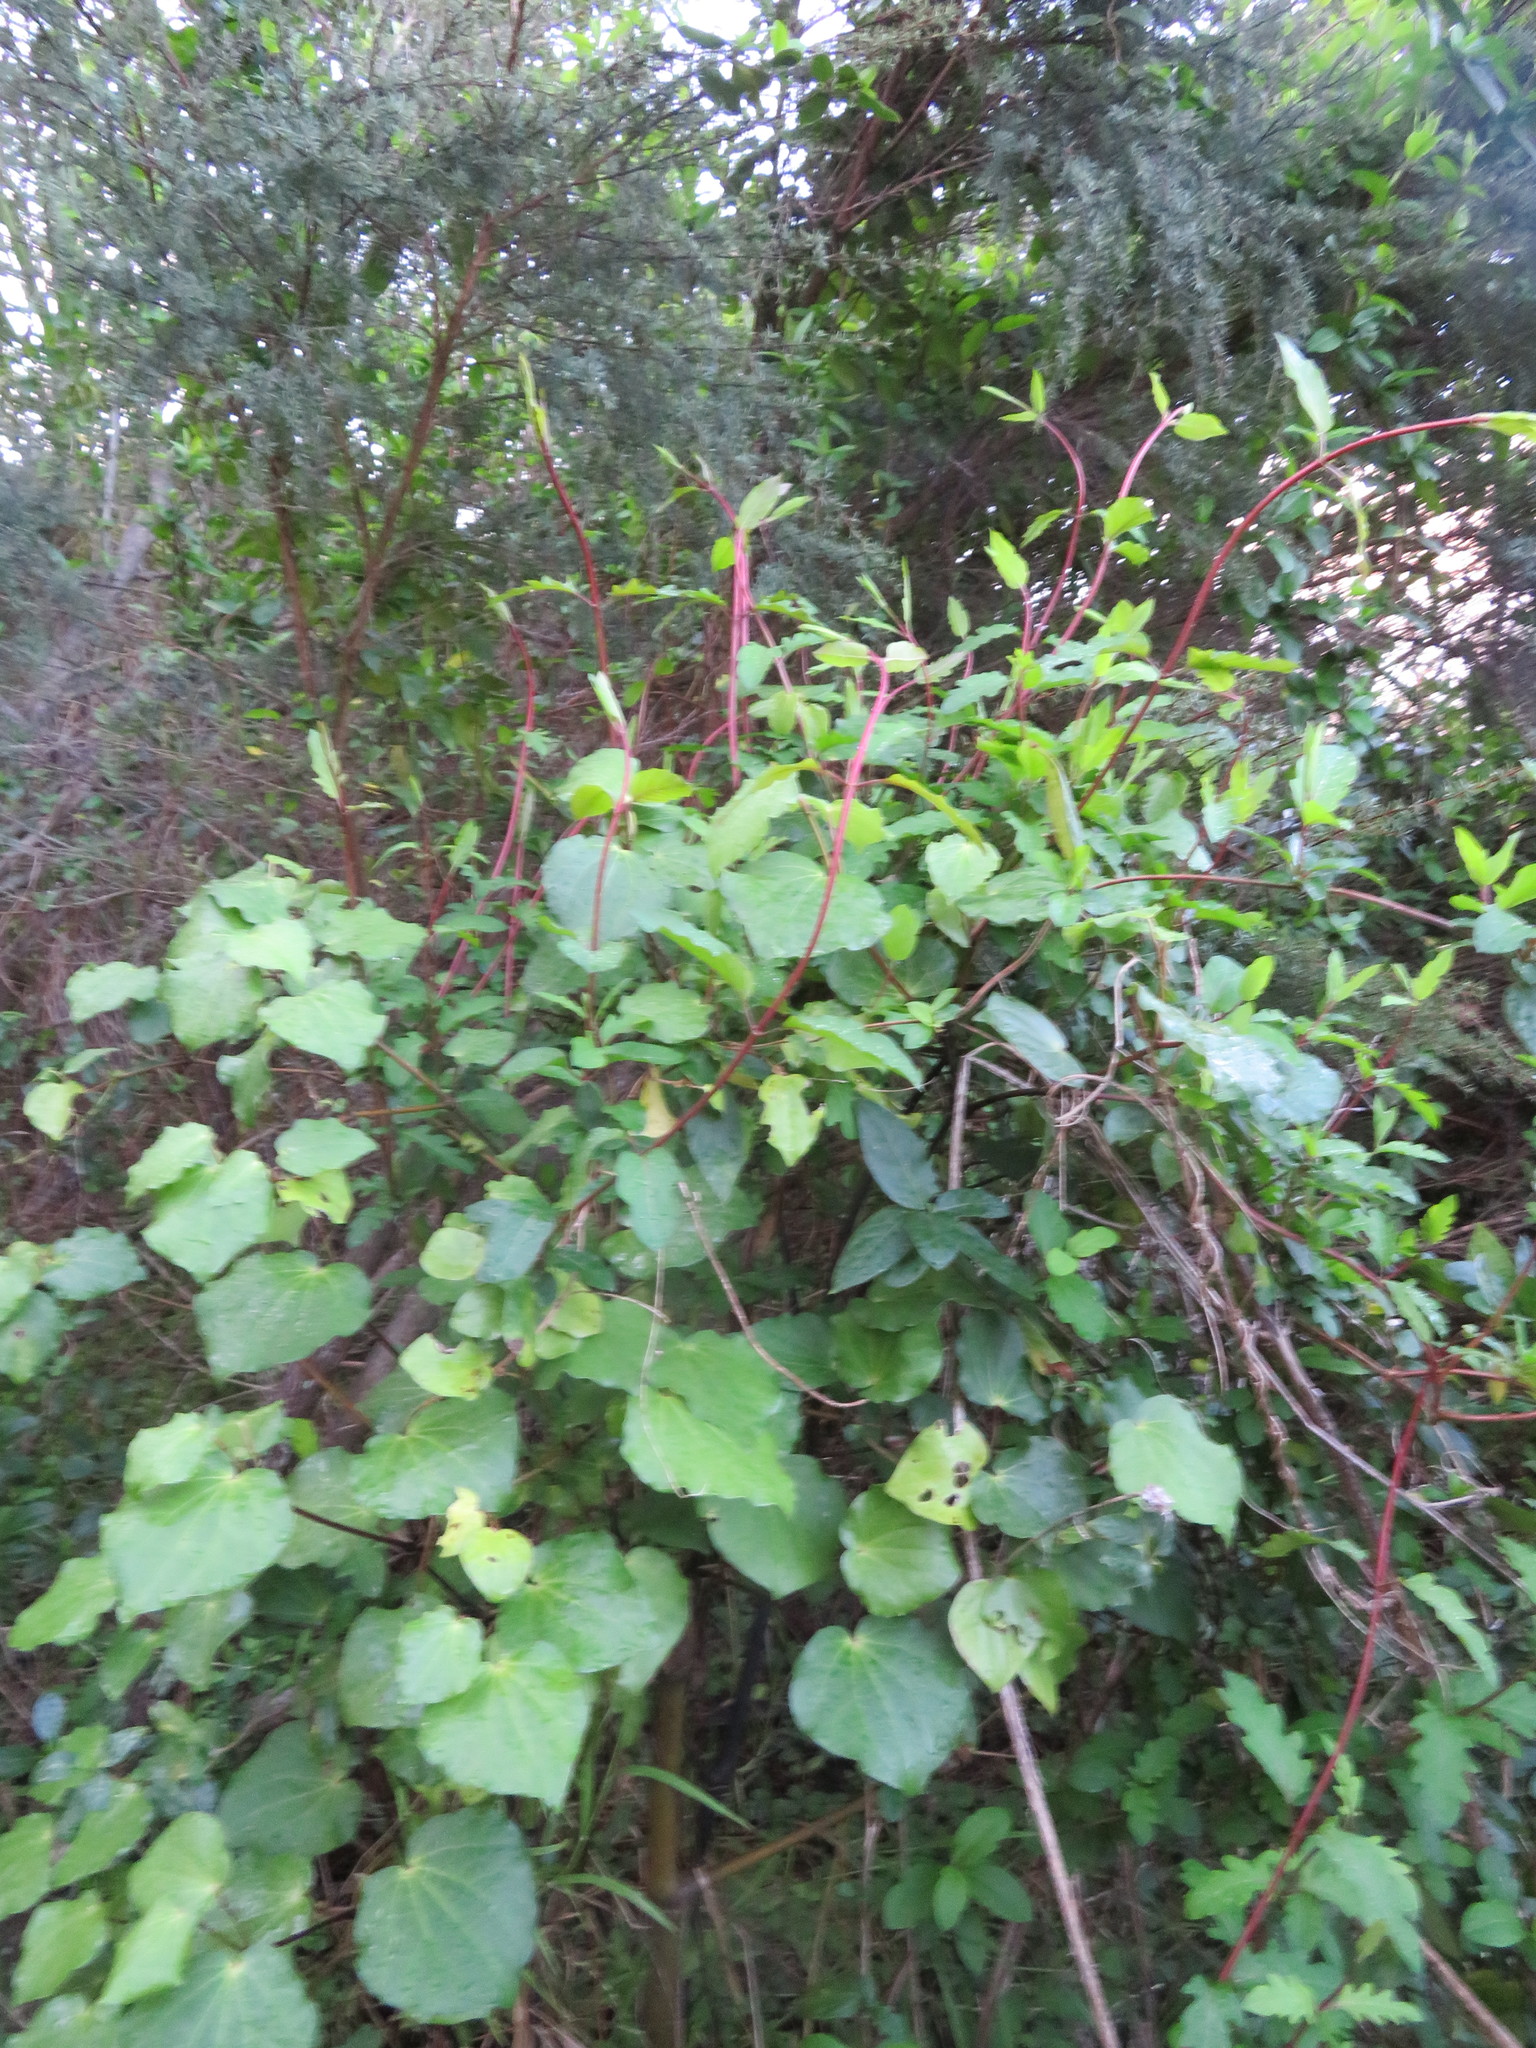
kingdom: Plantae
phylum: Tracheophyta
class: Magnoliopsida
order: Piperales
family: Piperaceae
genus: Macropiper
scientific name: Macropiper excelsum
